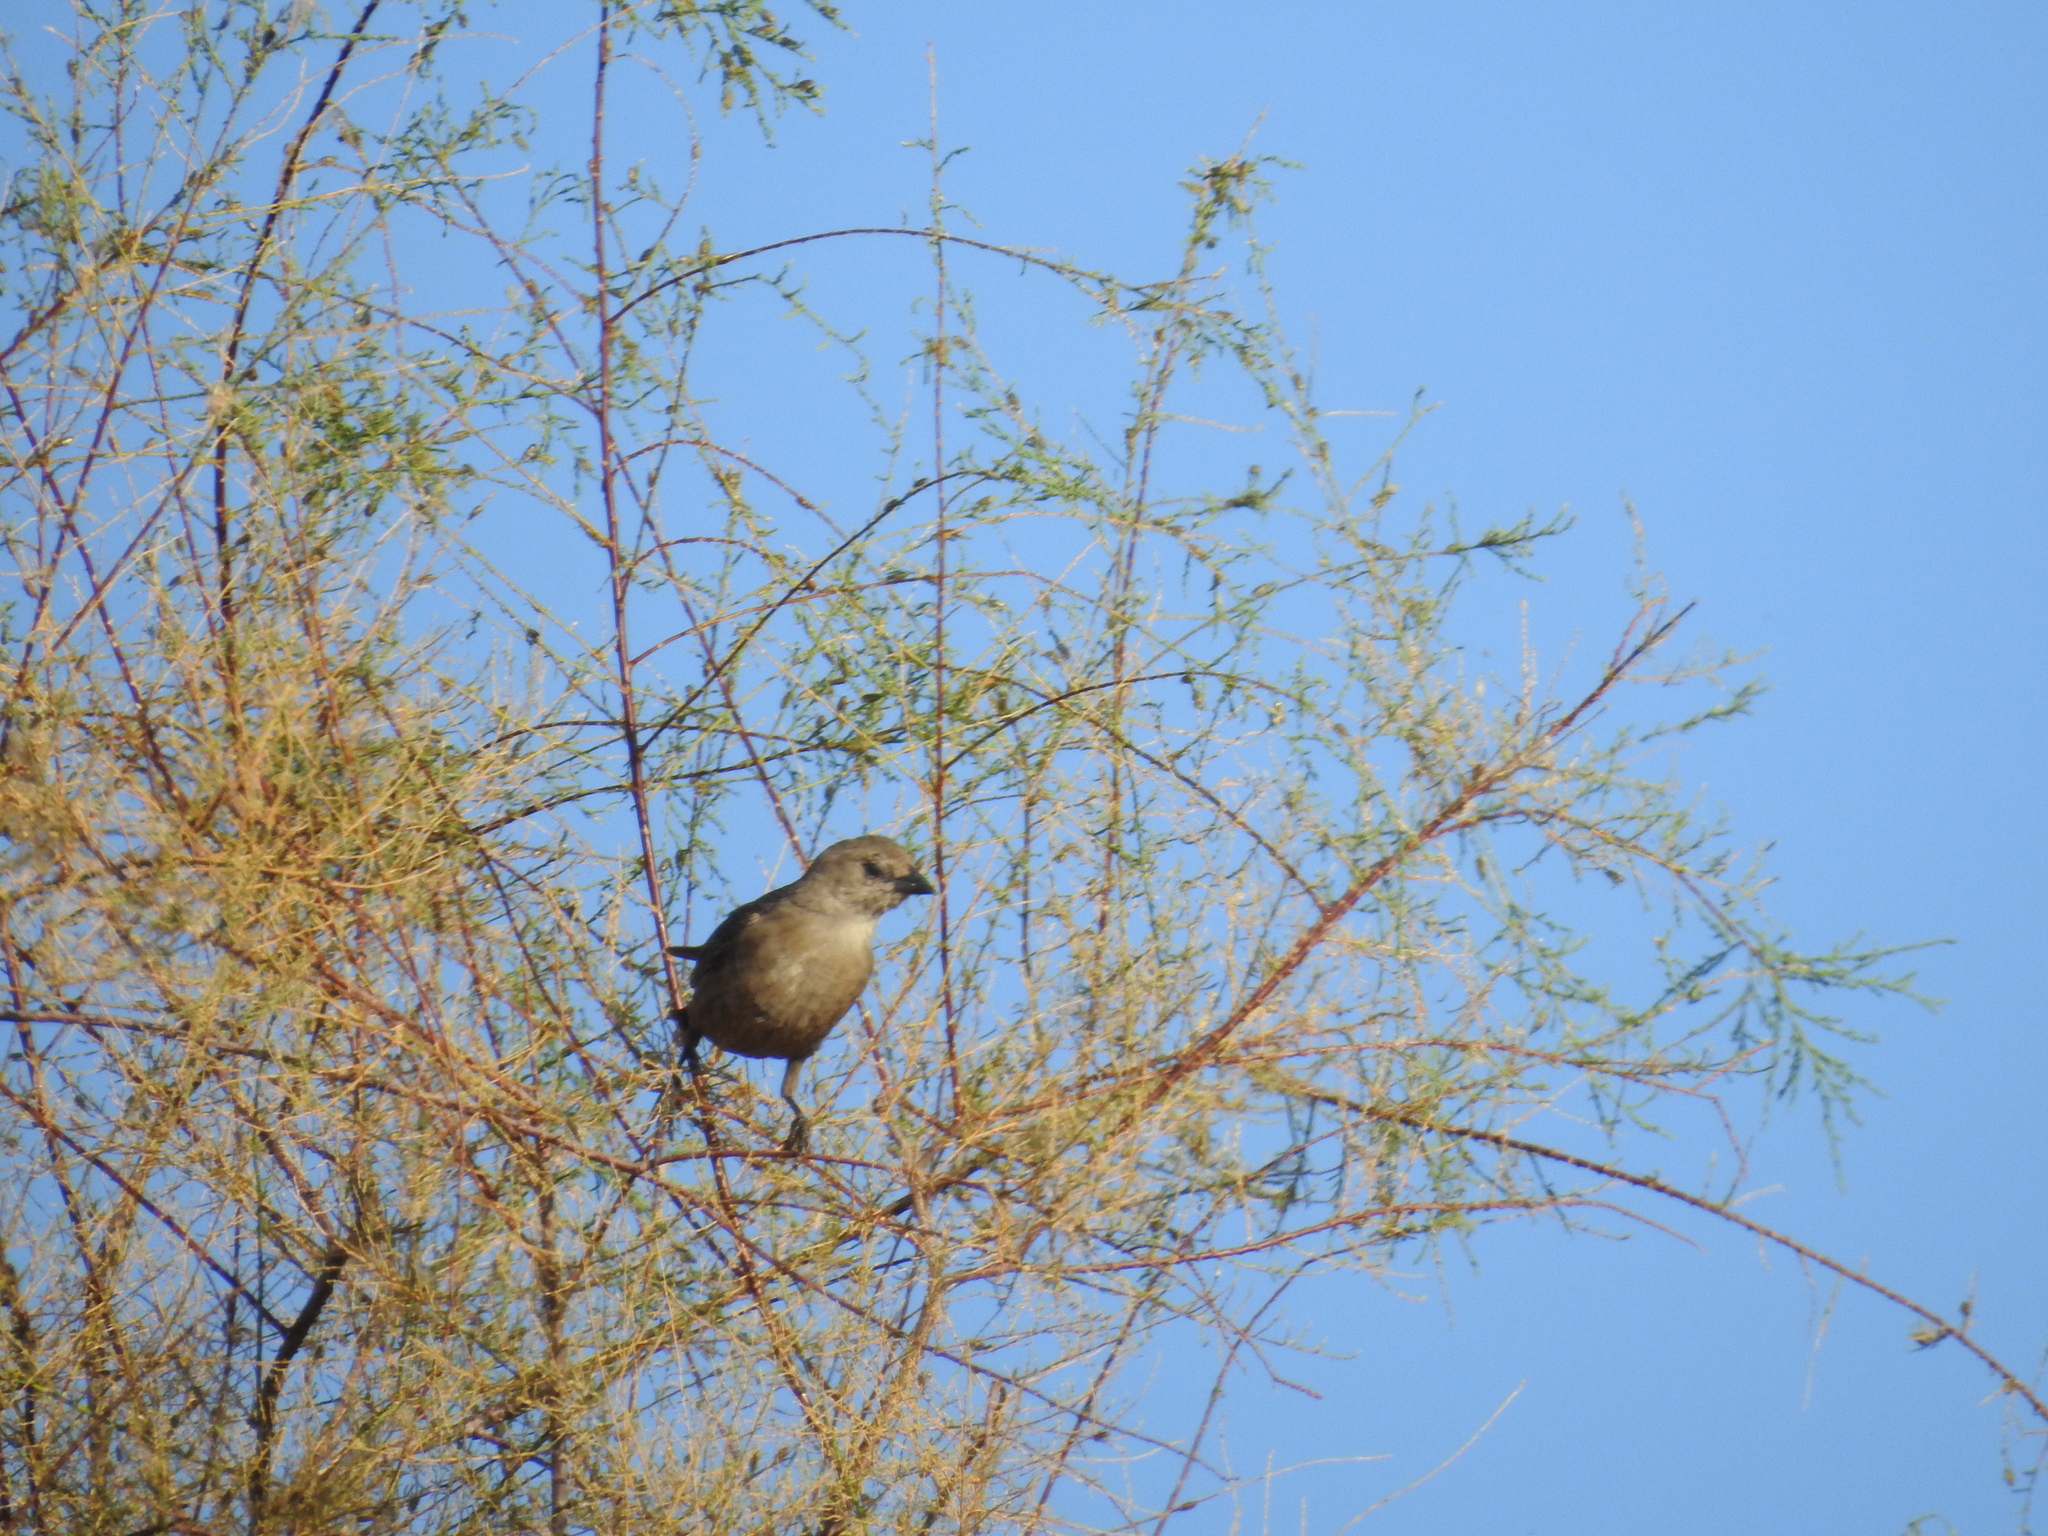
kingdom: Animalia
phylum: Chordata
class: Aves
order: Passeriformes
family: Icteridae
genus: Molothrus
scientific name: Molothrus ater
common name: Brown-headed cowbird
